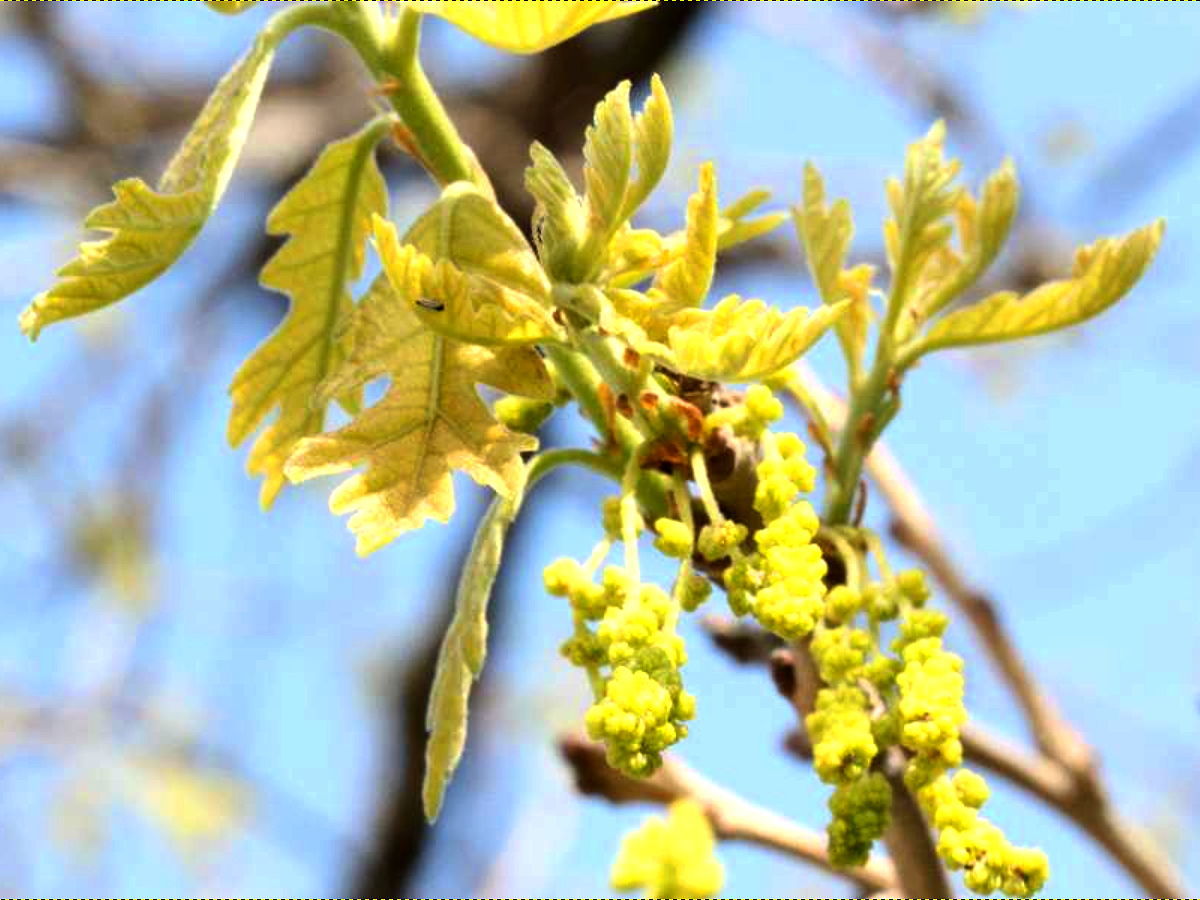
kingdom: Plantae
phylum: Tracheophyta
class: Magnoliopsida
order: Fagales
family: Fagaceae
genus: Quercus
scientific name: Quercus macrocarpa
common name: Bur oak
